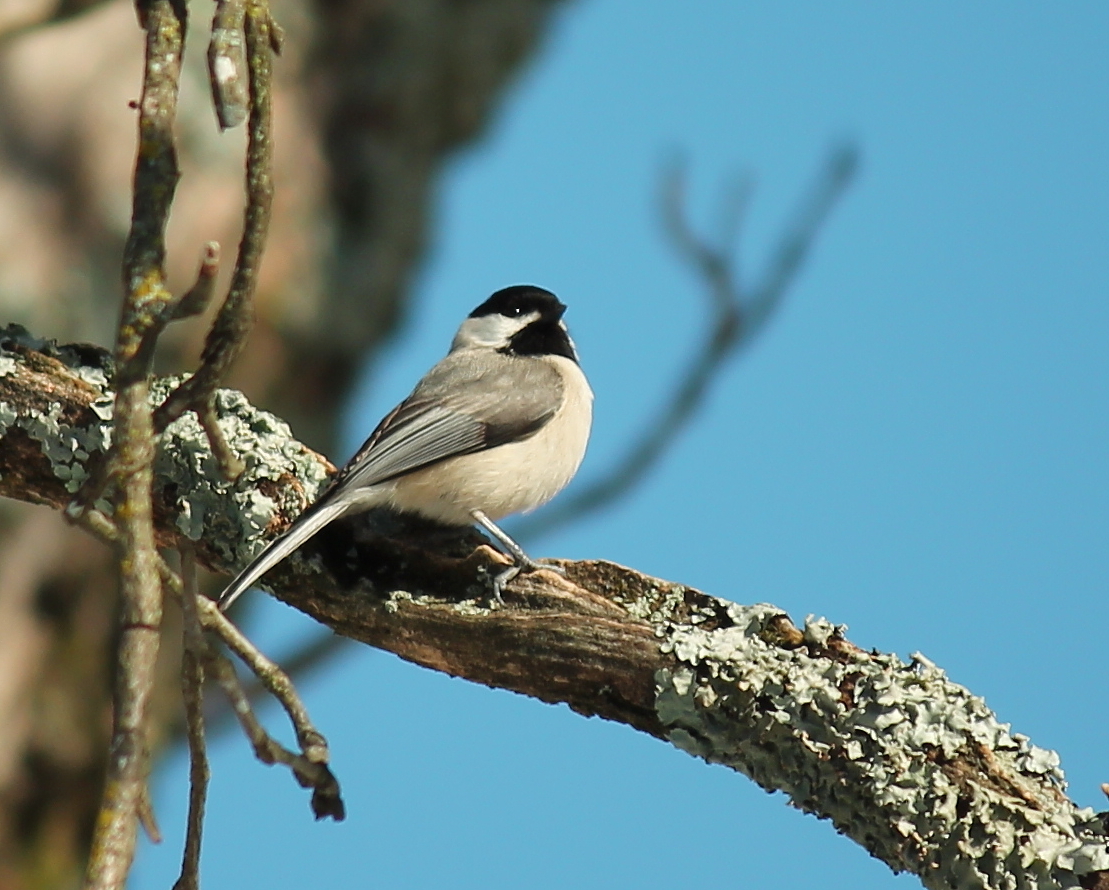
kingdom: Animalia
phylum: Chordata
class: Aves
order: Passeriformes
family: Paridae
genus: Poecile
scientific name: Poecile carolinensis
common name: Carolina chickadee
